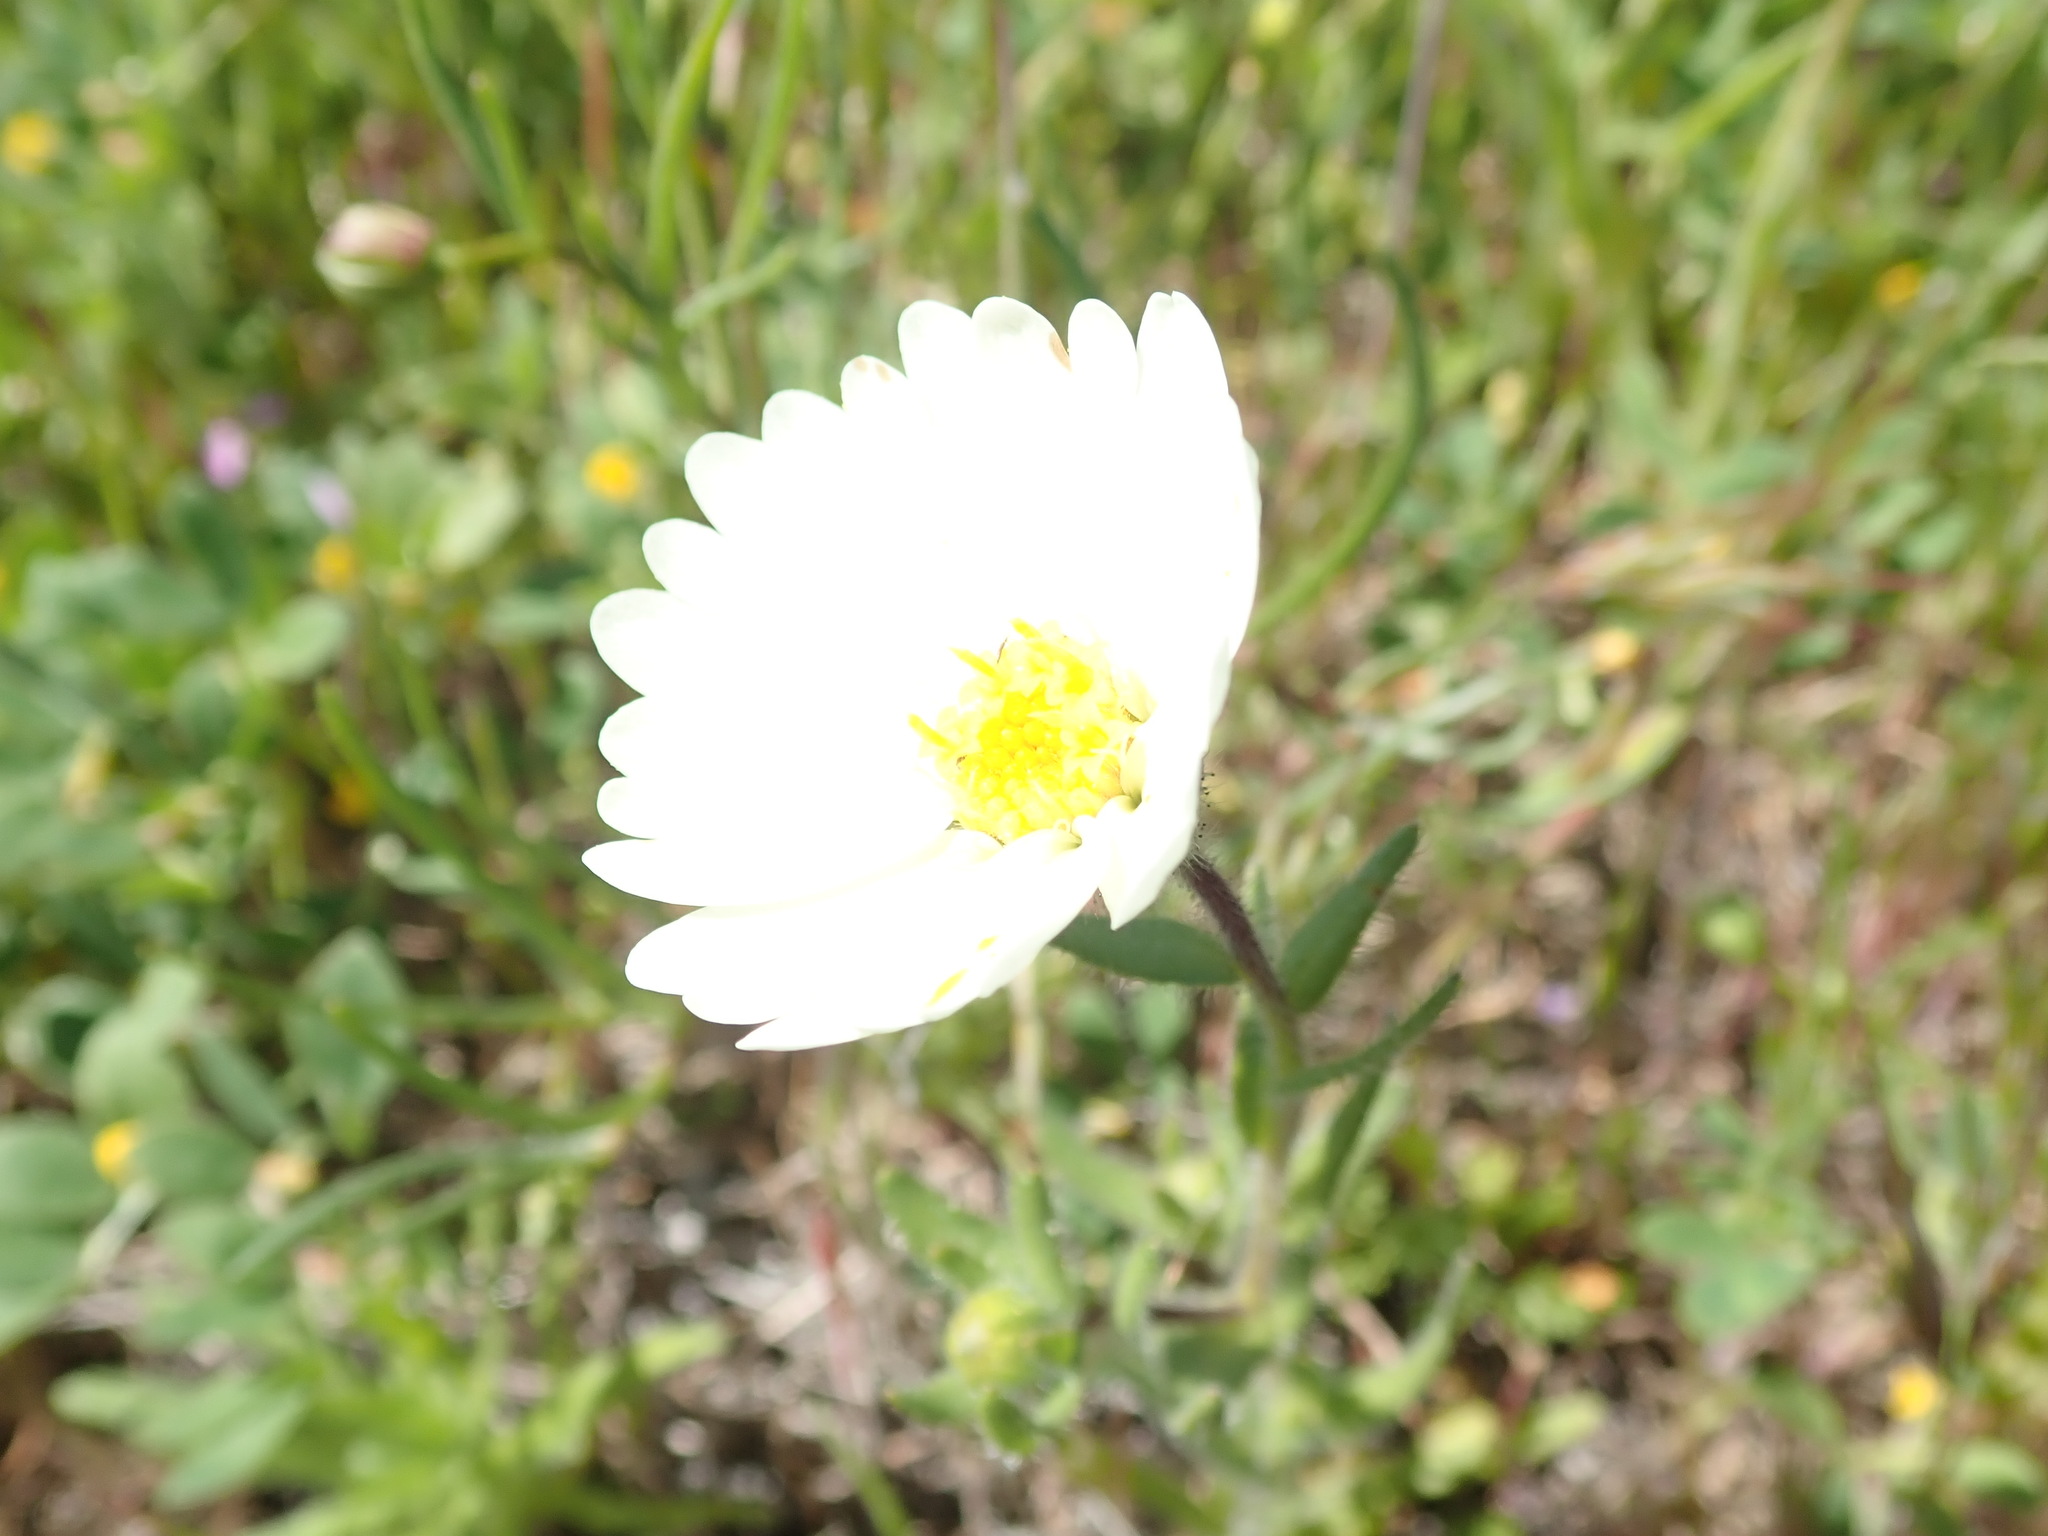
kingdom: Plantae
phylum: Tracheophyta
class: Magnoliopsida
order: Asterales
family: Asteraceae
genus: Layia
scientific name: Layia glandulosa
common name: White layia
